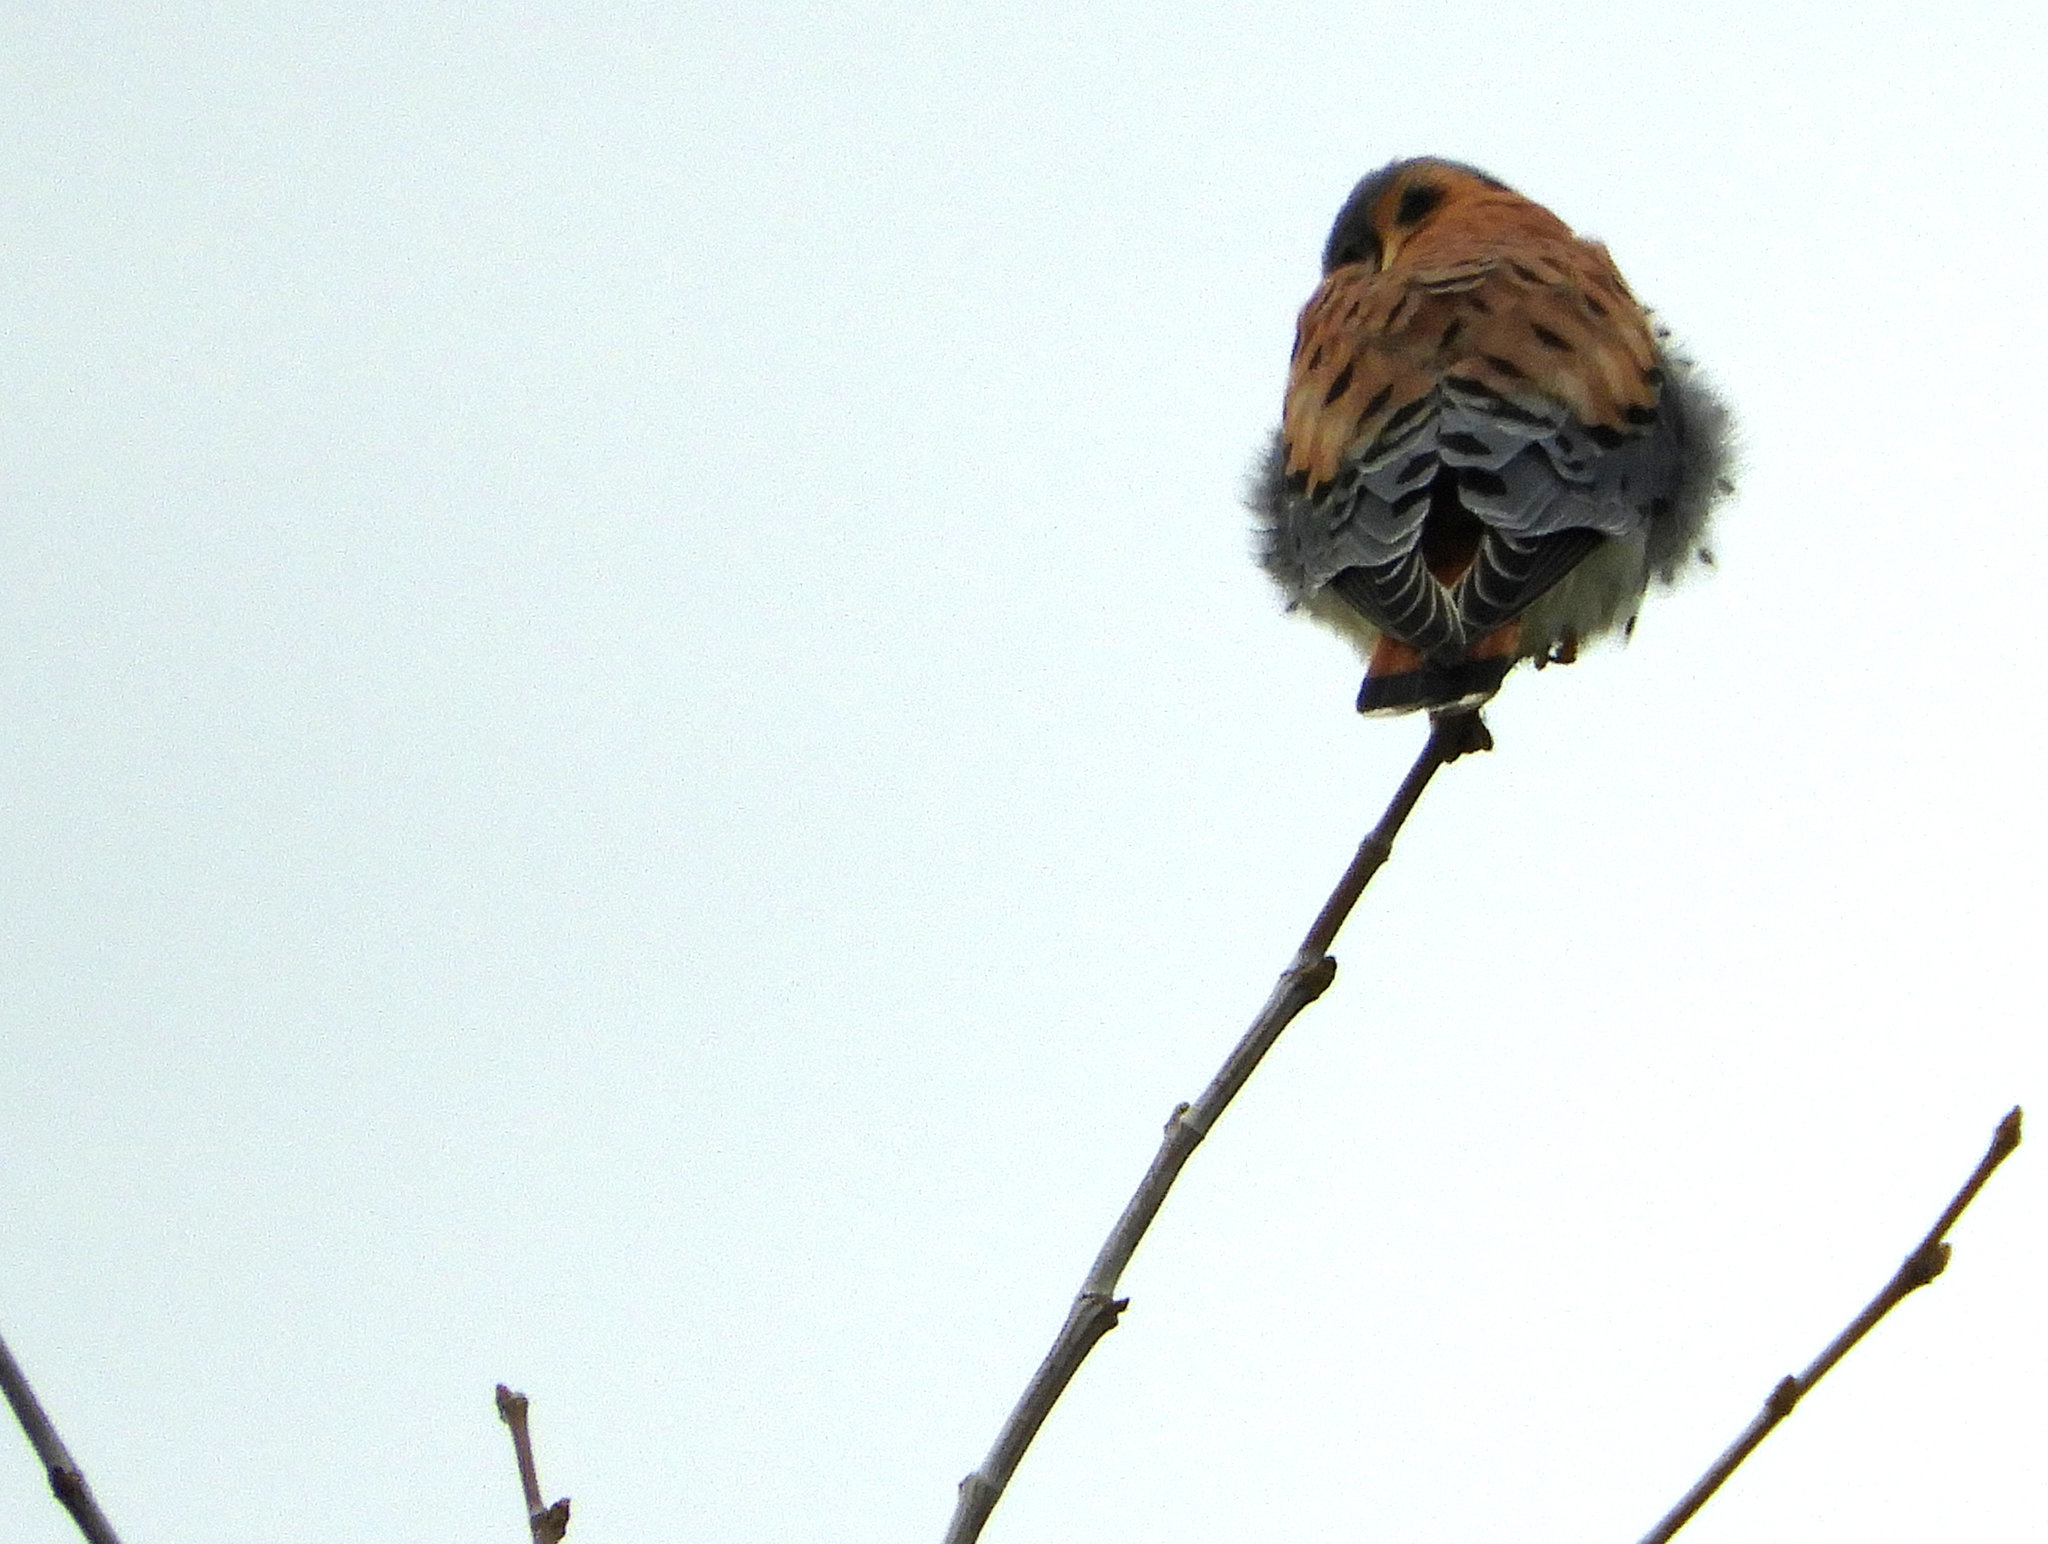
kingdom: Animalia
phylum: Chordata
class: Aves
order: Falconiformes
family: Falconidae
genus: Falco
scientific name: Falco sparverius
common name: American kestrel
